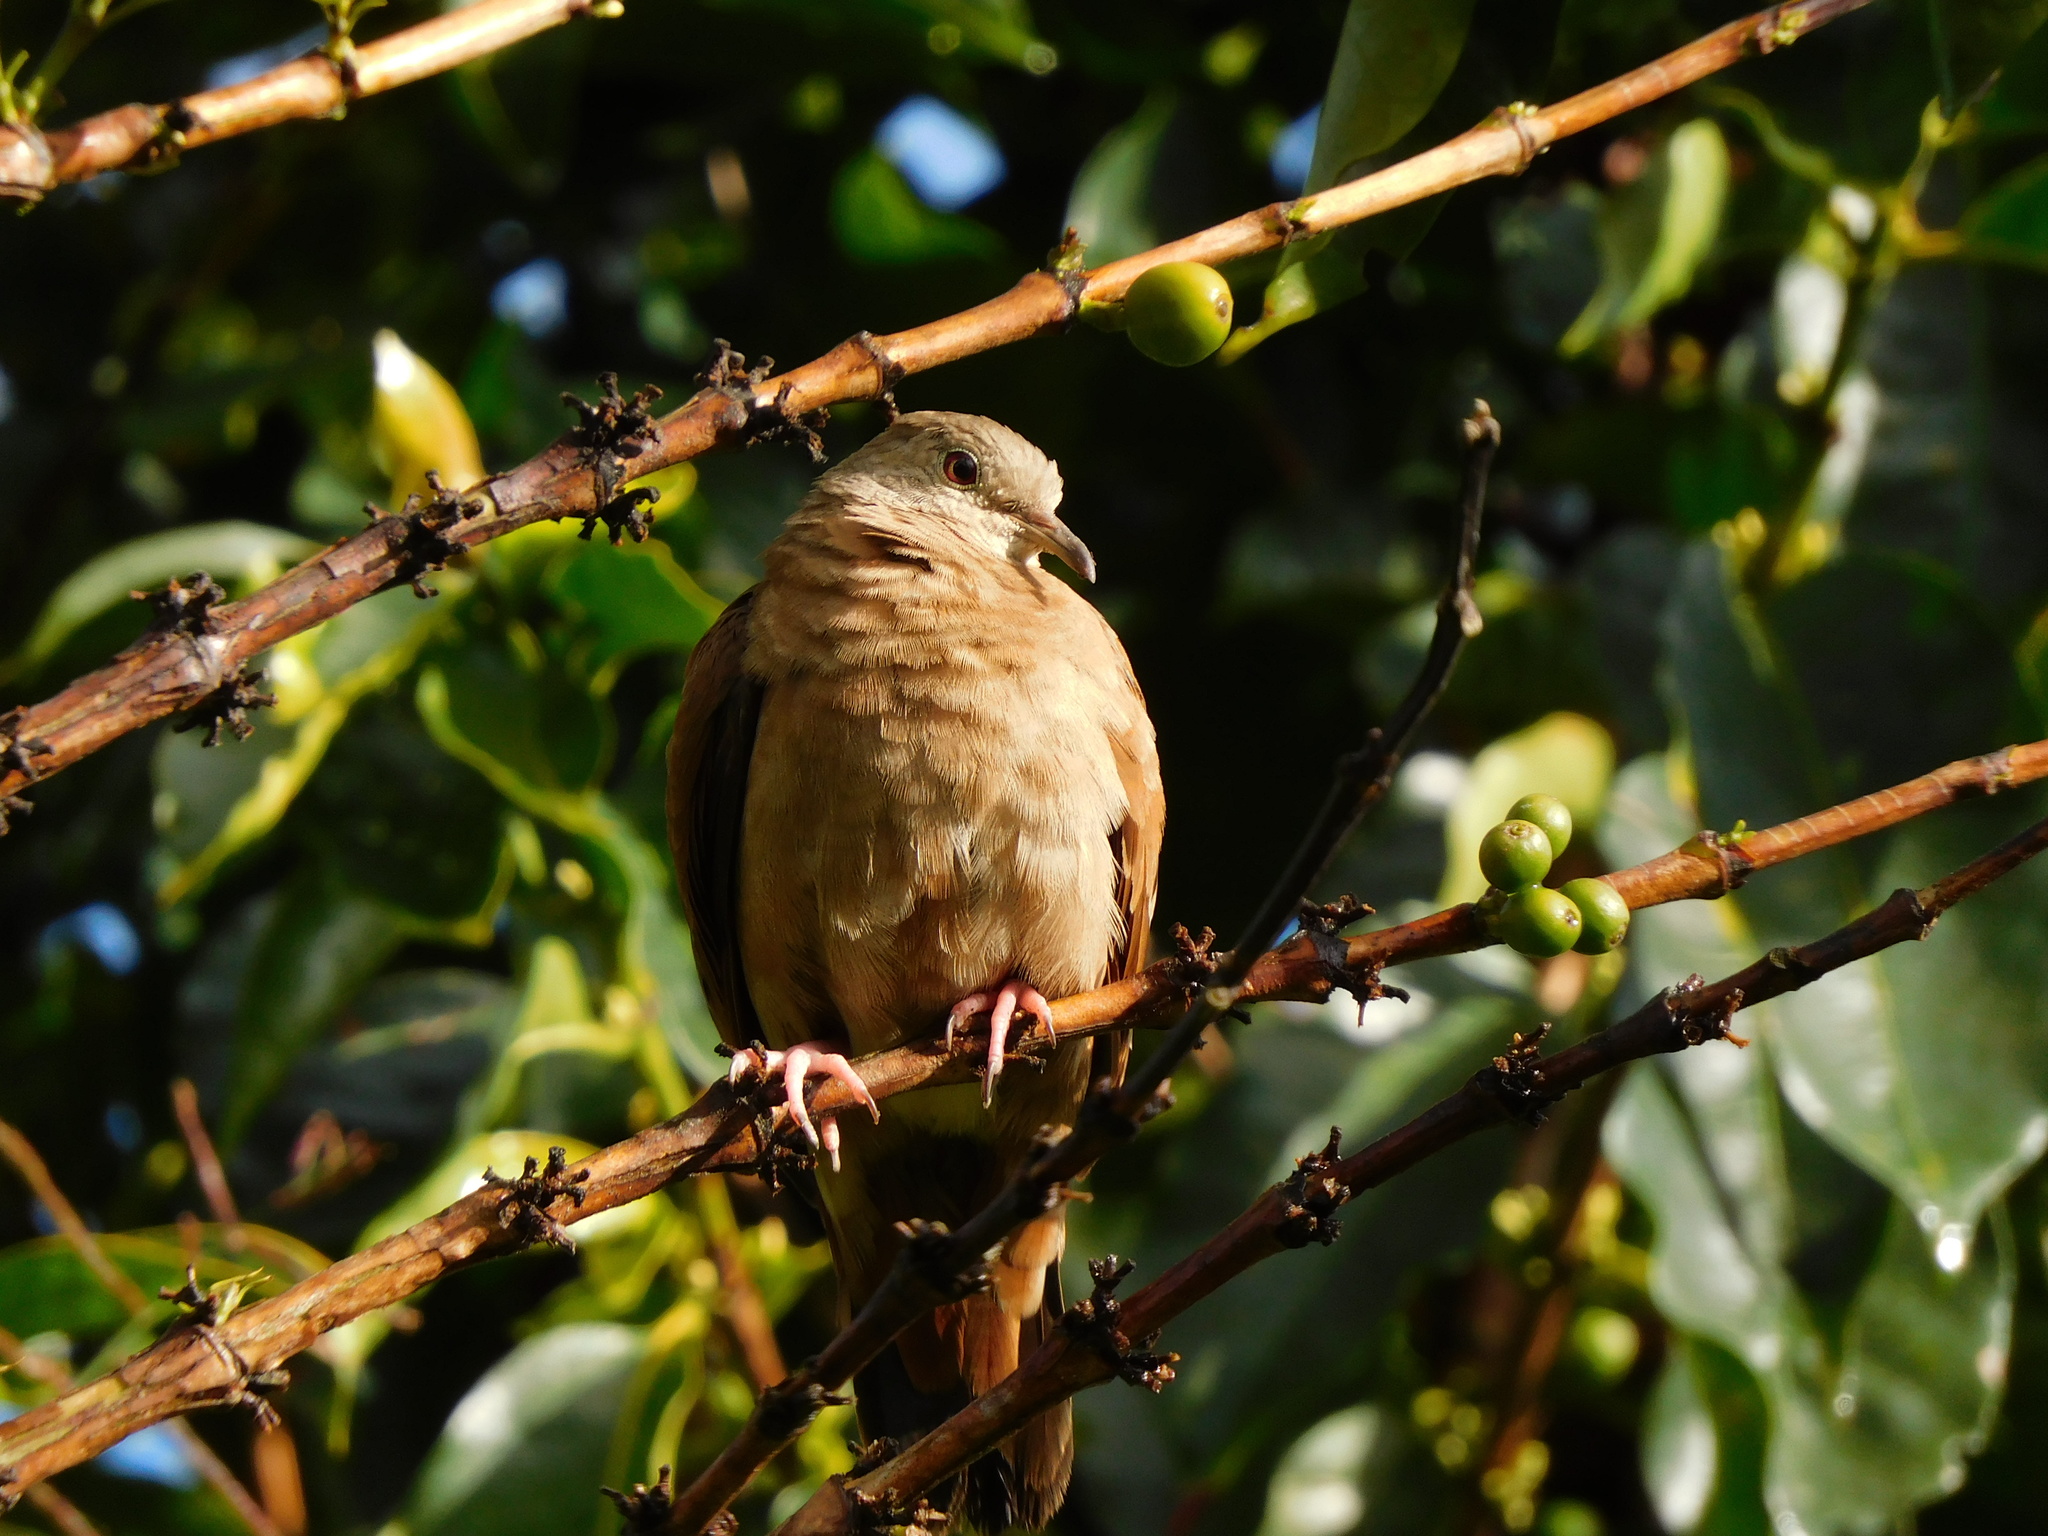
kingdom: Animalia
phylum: Chordata
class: Aves
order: Columbiformes
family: Columbidae
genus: Columbina
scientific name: Columbina talpacoti
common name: Ruddy ground dove
